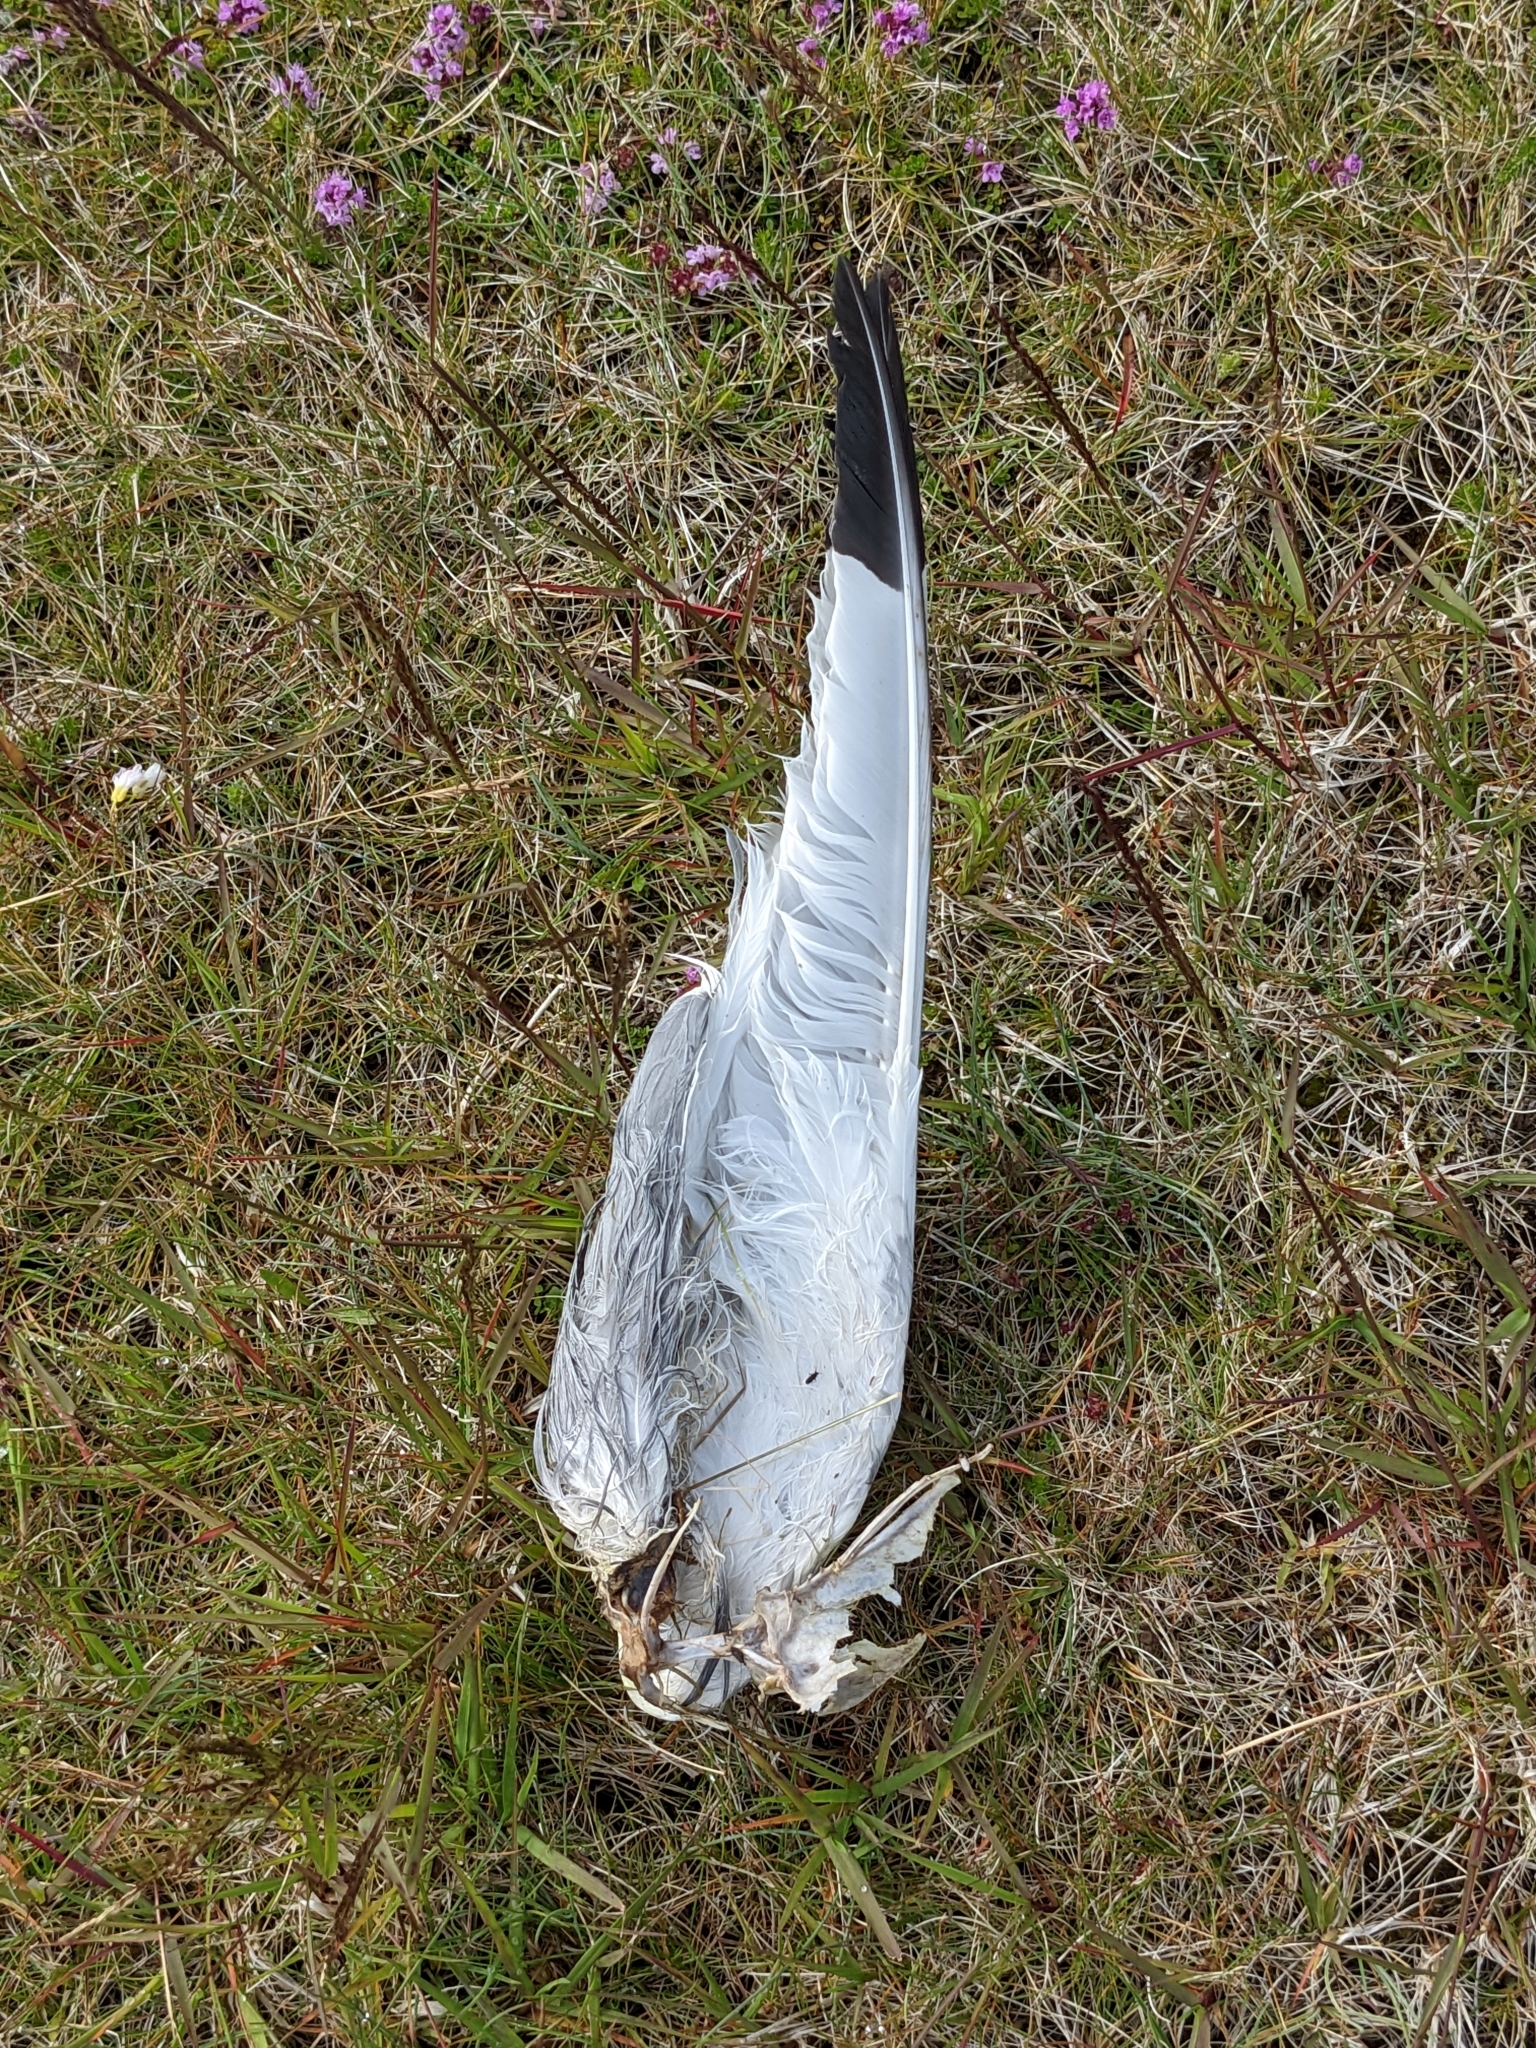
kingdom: Animalia
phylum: Chordata
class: Aves
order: Charadriiformes
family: Laridae
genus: Rissa
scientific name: Rissa tridactyla
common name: Black-legged kittiwake
